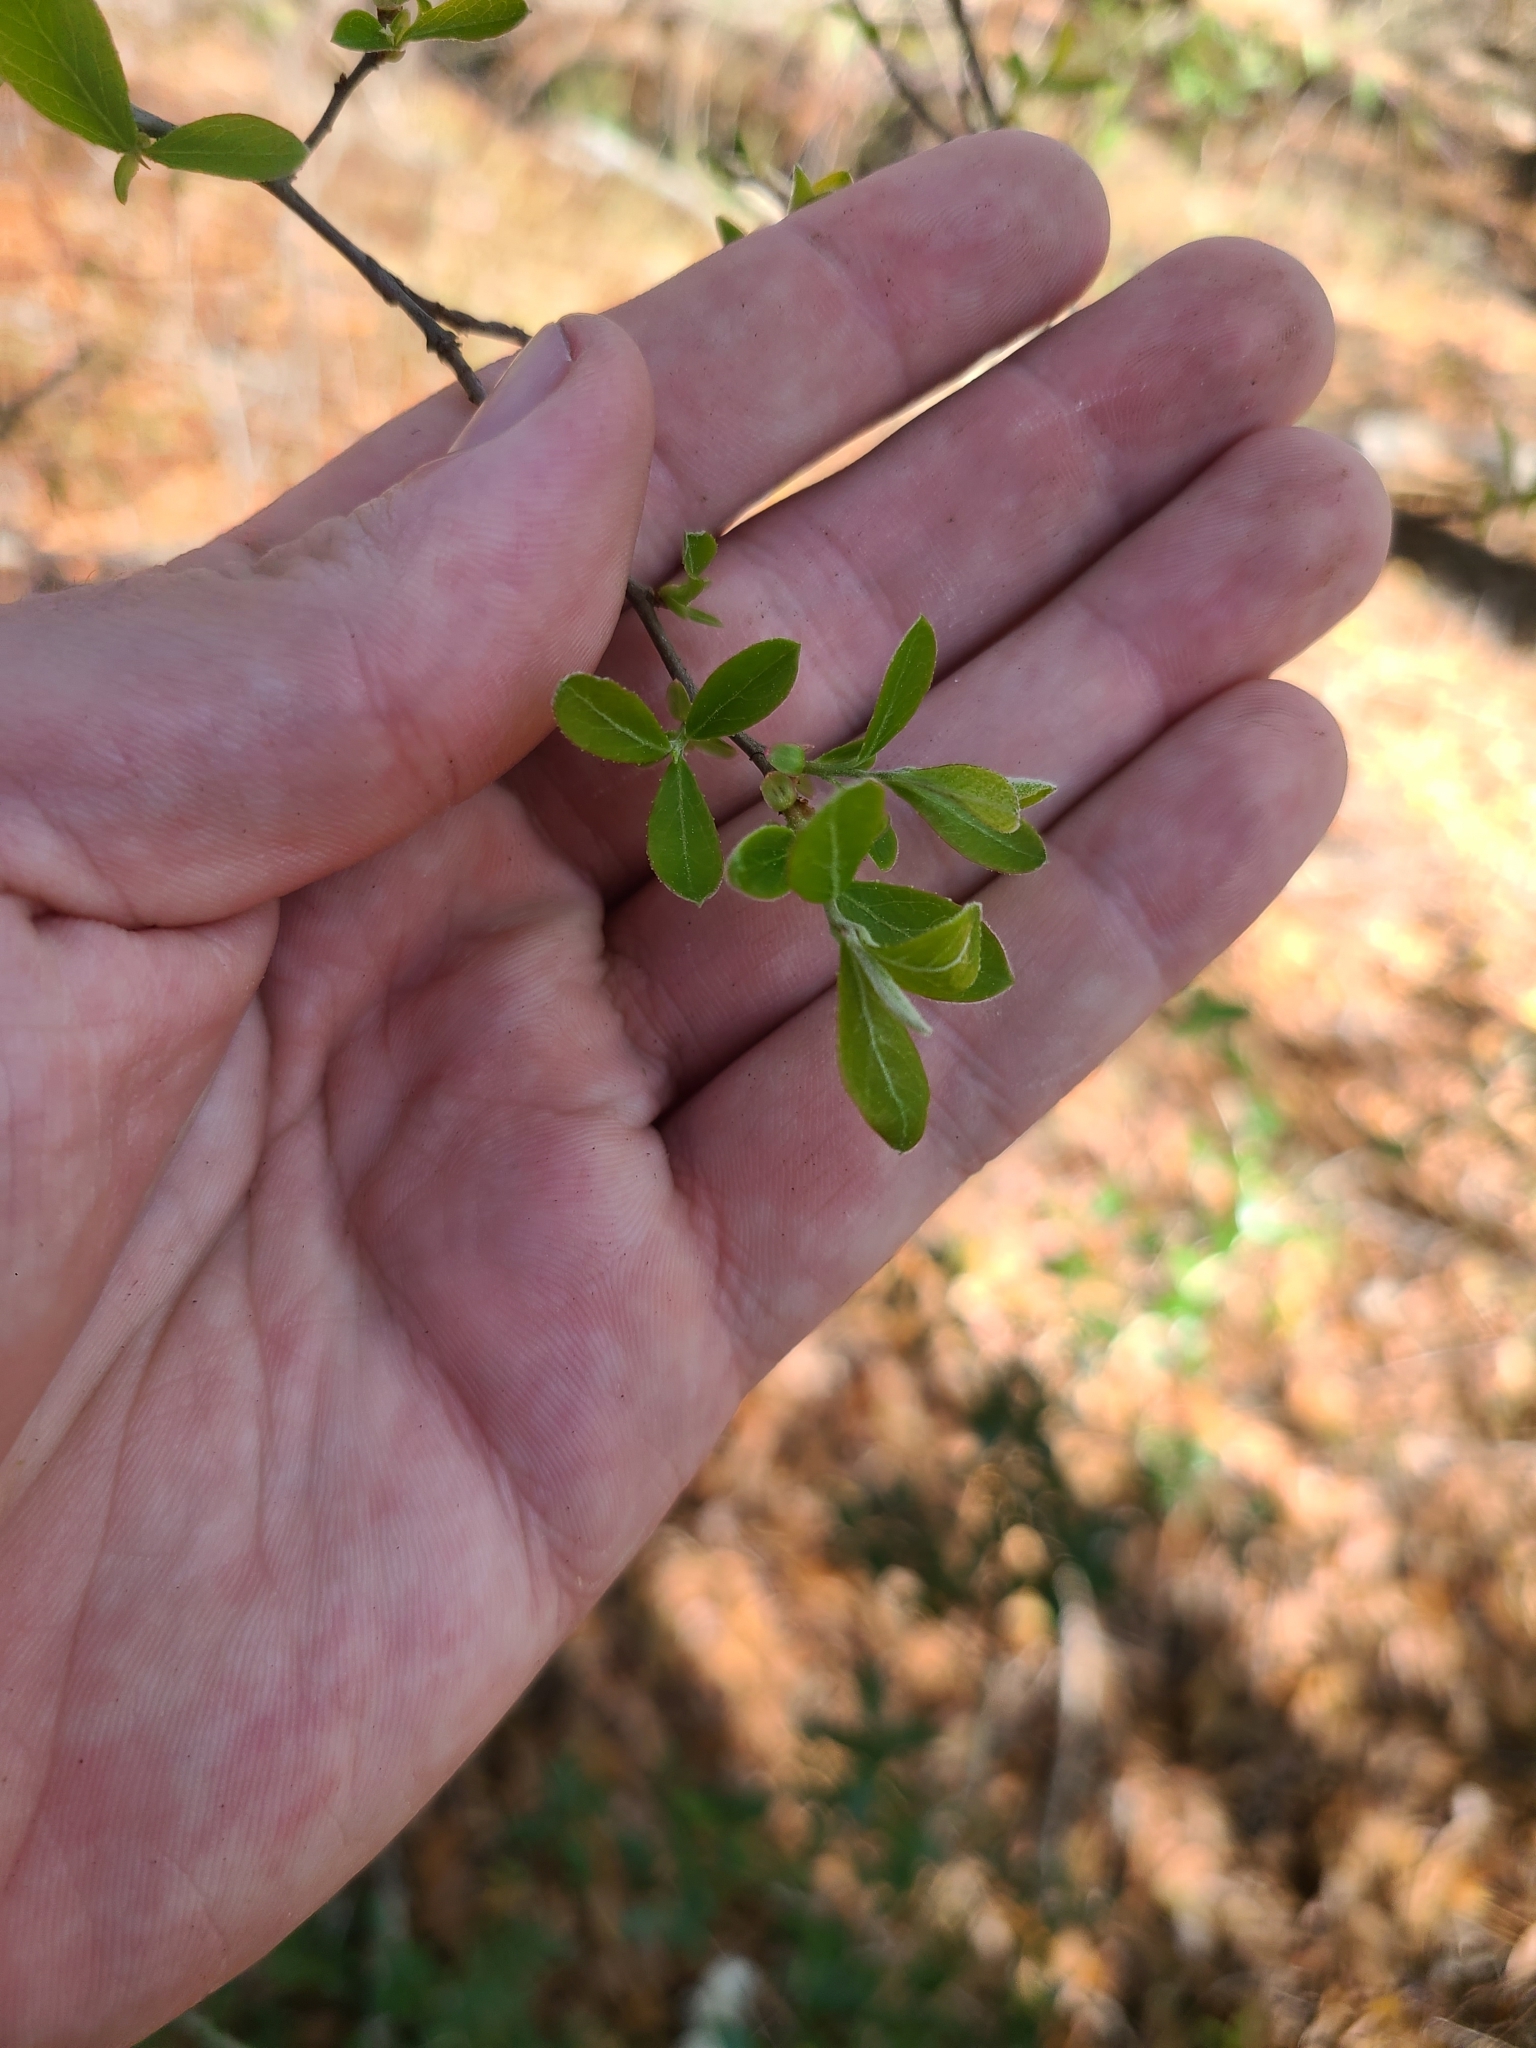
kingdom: Plantae
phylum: Tracheophyta
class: Magnoliopsida
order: Ericales
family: Ericaceae
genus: Vaccinium
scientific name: Vaccinium arboreum
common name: Farkleberry
